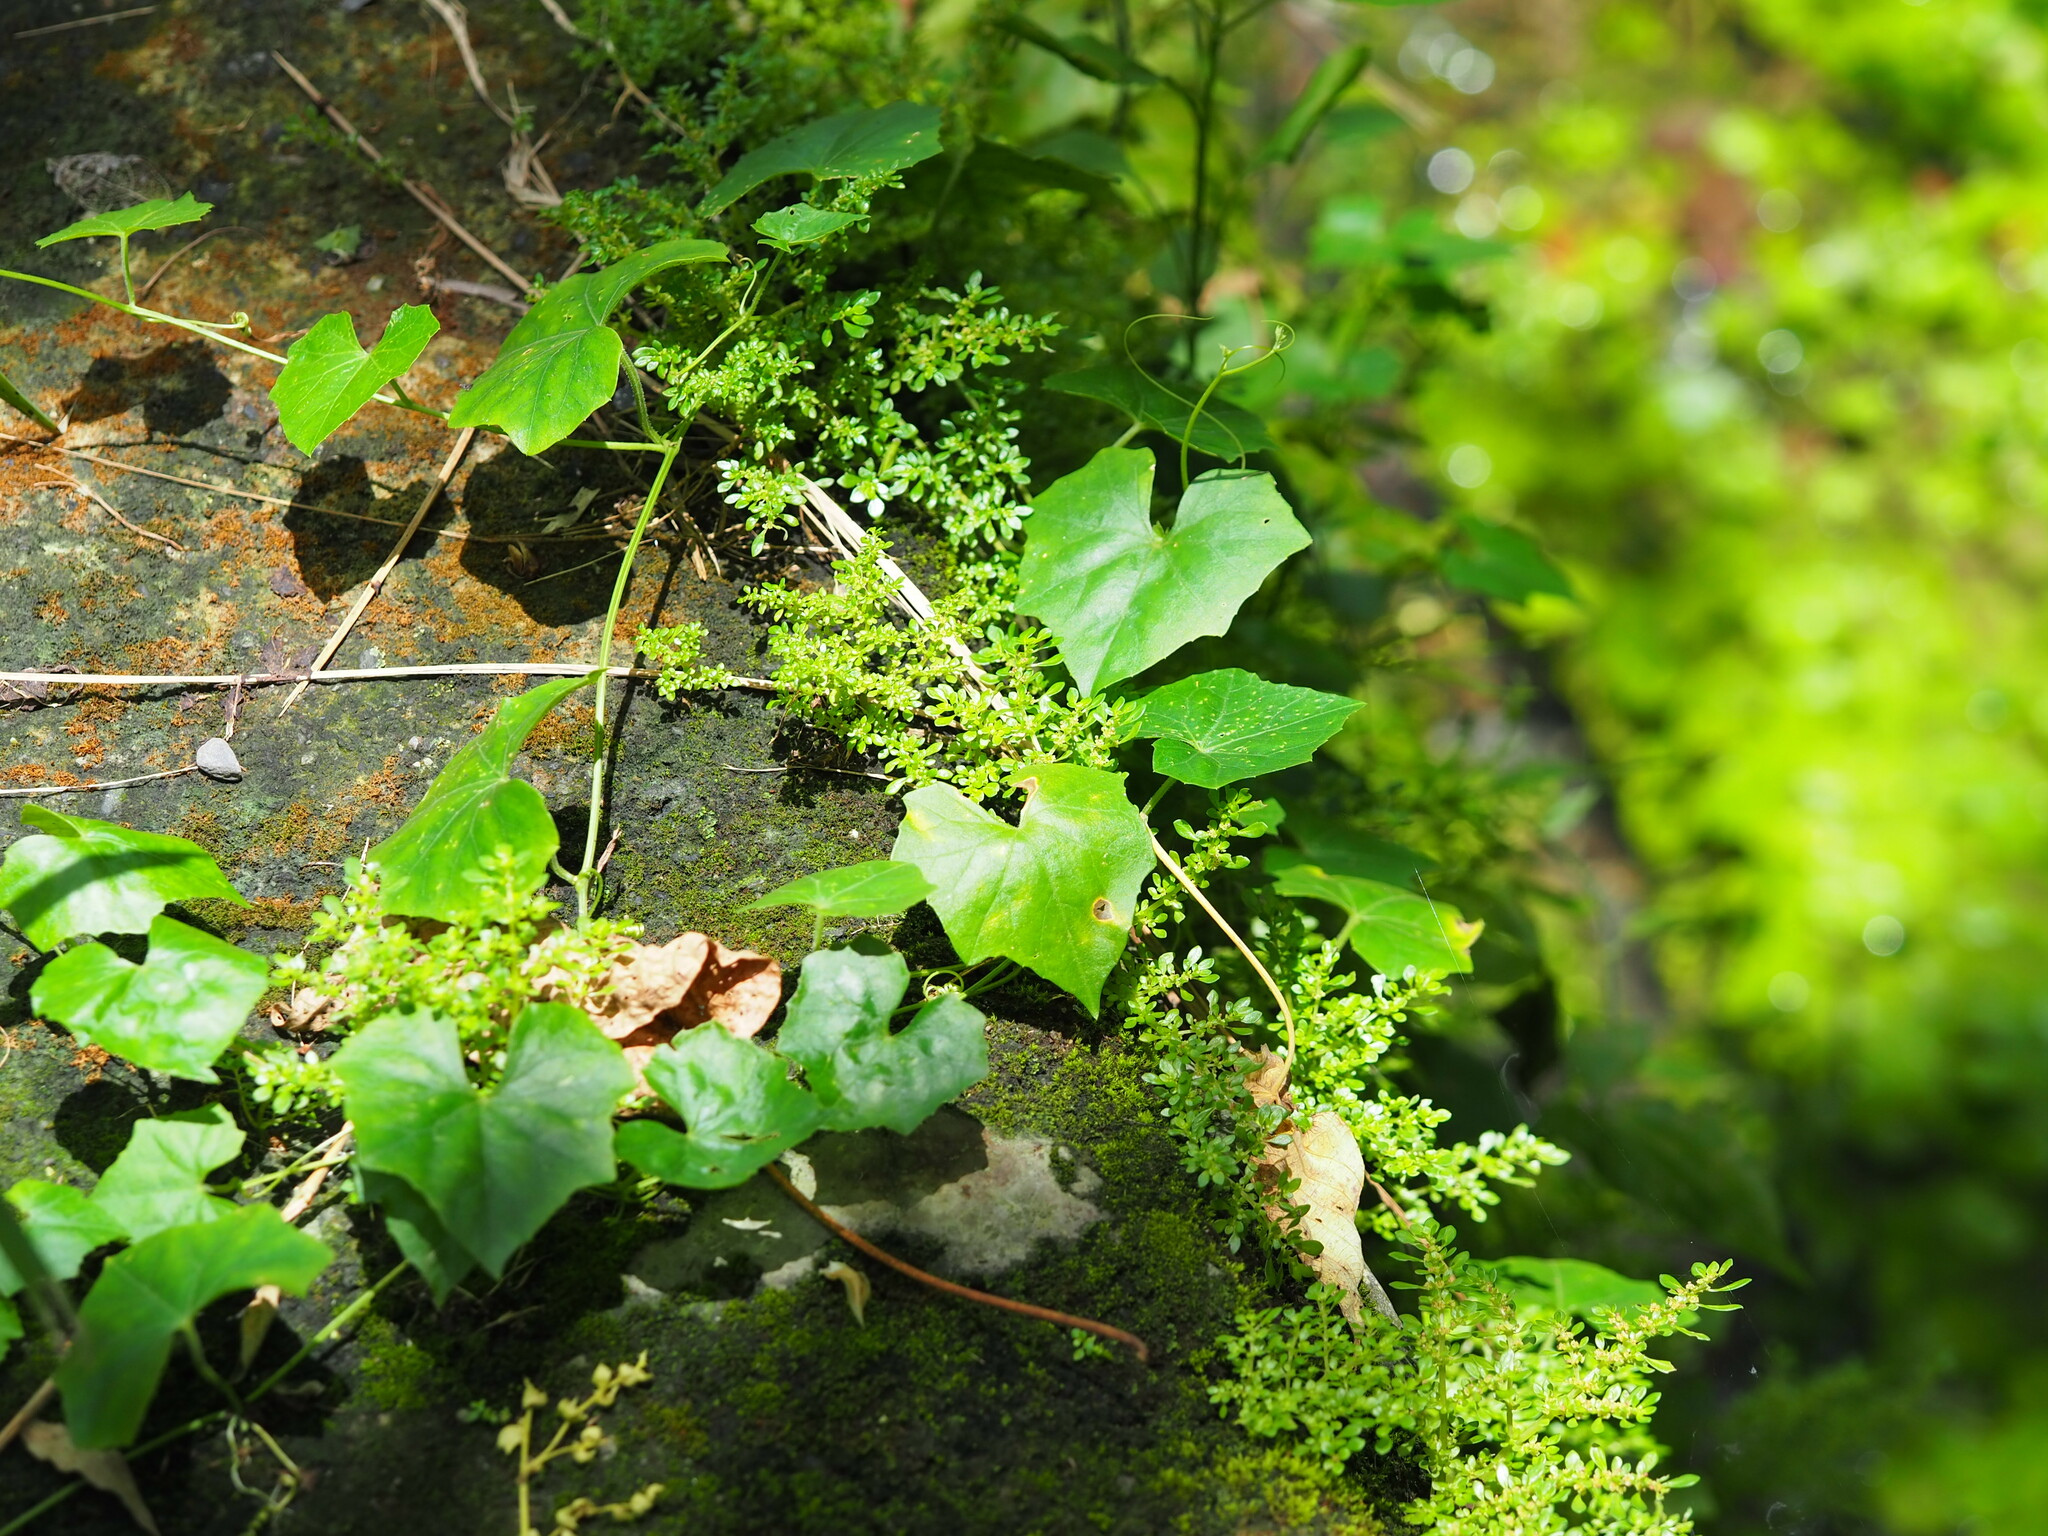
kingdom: Plantae
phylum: Tracheophyta
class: Magnoliopsida
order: Cucurbitales
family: Cucurbitaceae
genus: Melothria
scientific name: Melothria pendula
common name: Creeping-cucumber
